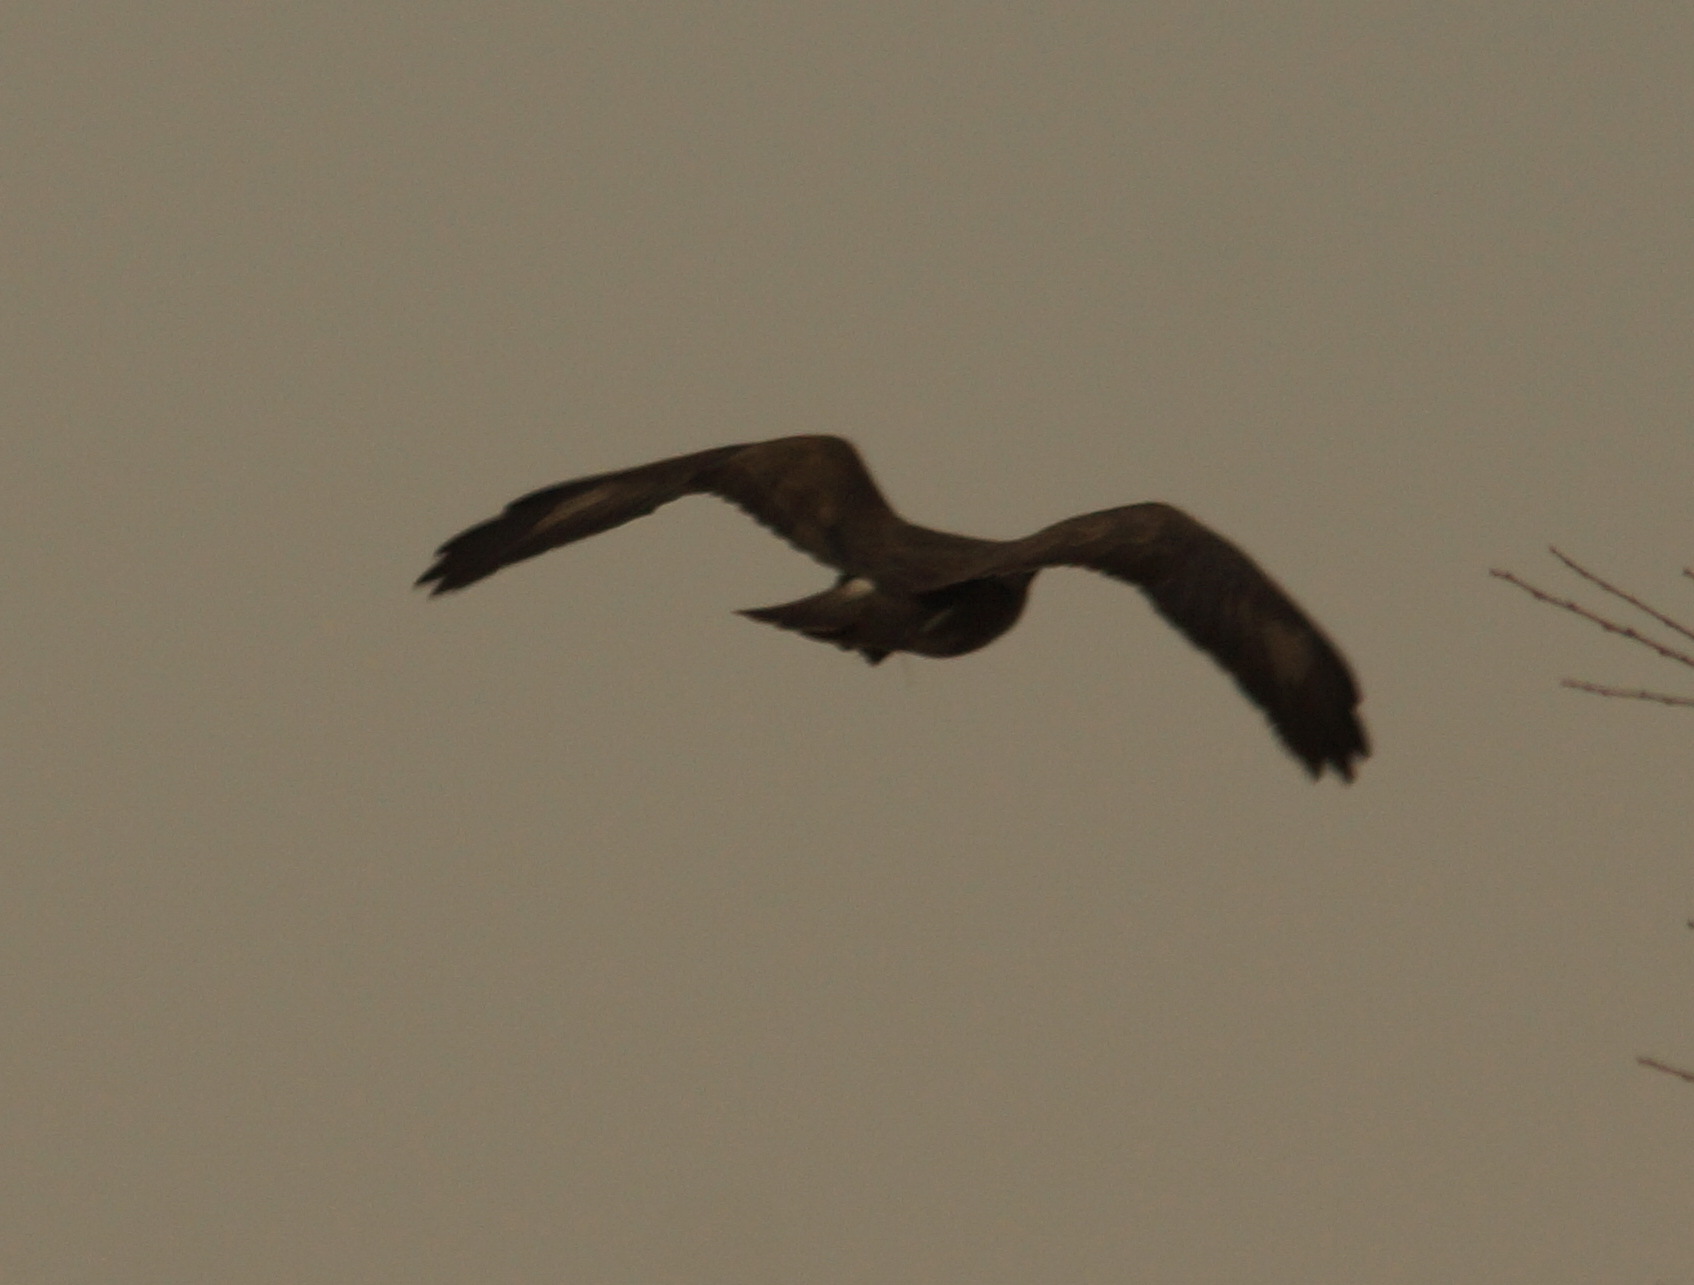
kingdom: Animalia
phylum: Chordata
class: Aves
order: Accipitriformes
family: Accipitridae
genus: Buteo
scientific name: Buteo buteo
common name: Common buzzard
